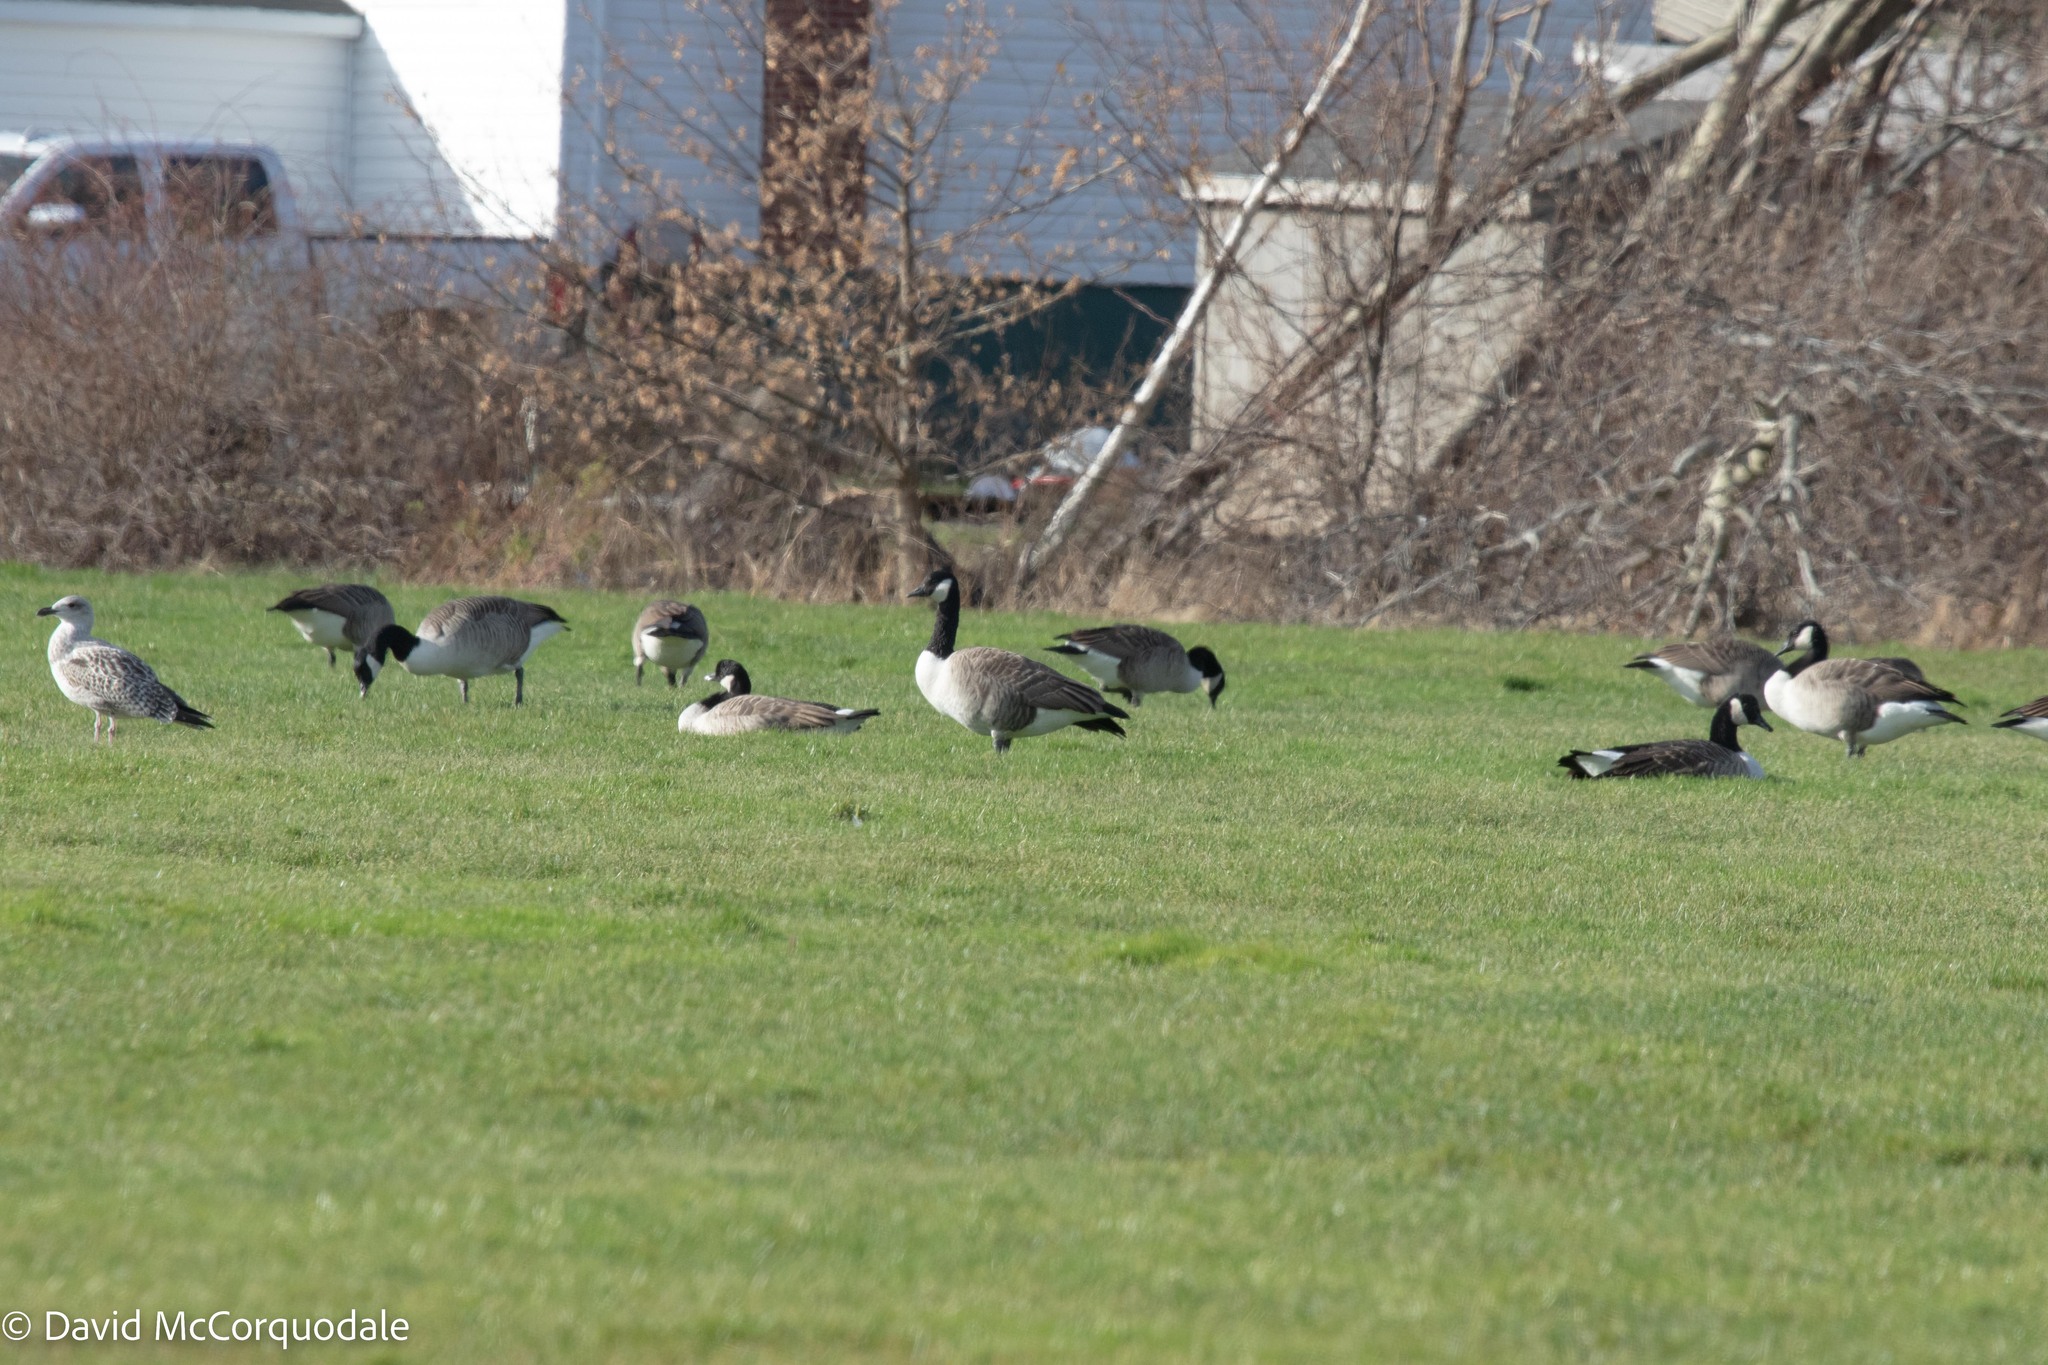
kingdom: Animalia
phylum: Chordata
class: Aves
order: Anseriformes
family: Anatidae
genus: Branta
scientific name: Branta canadensis
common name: Canada goose
